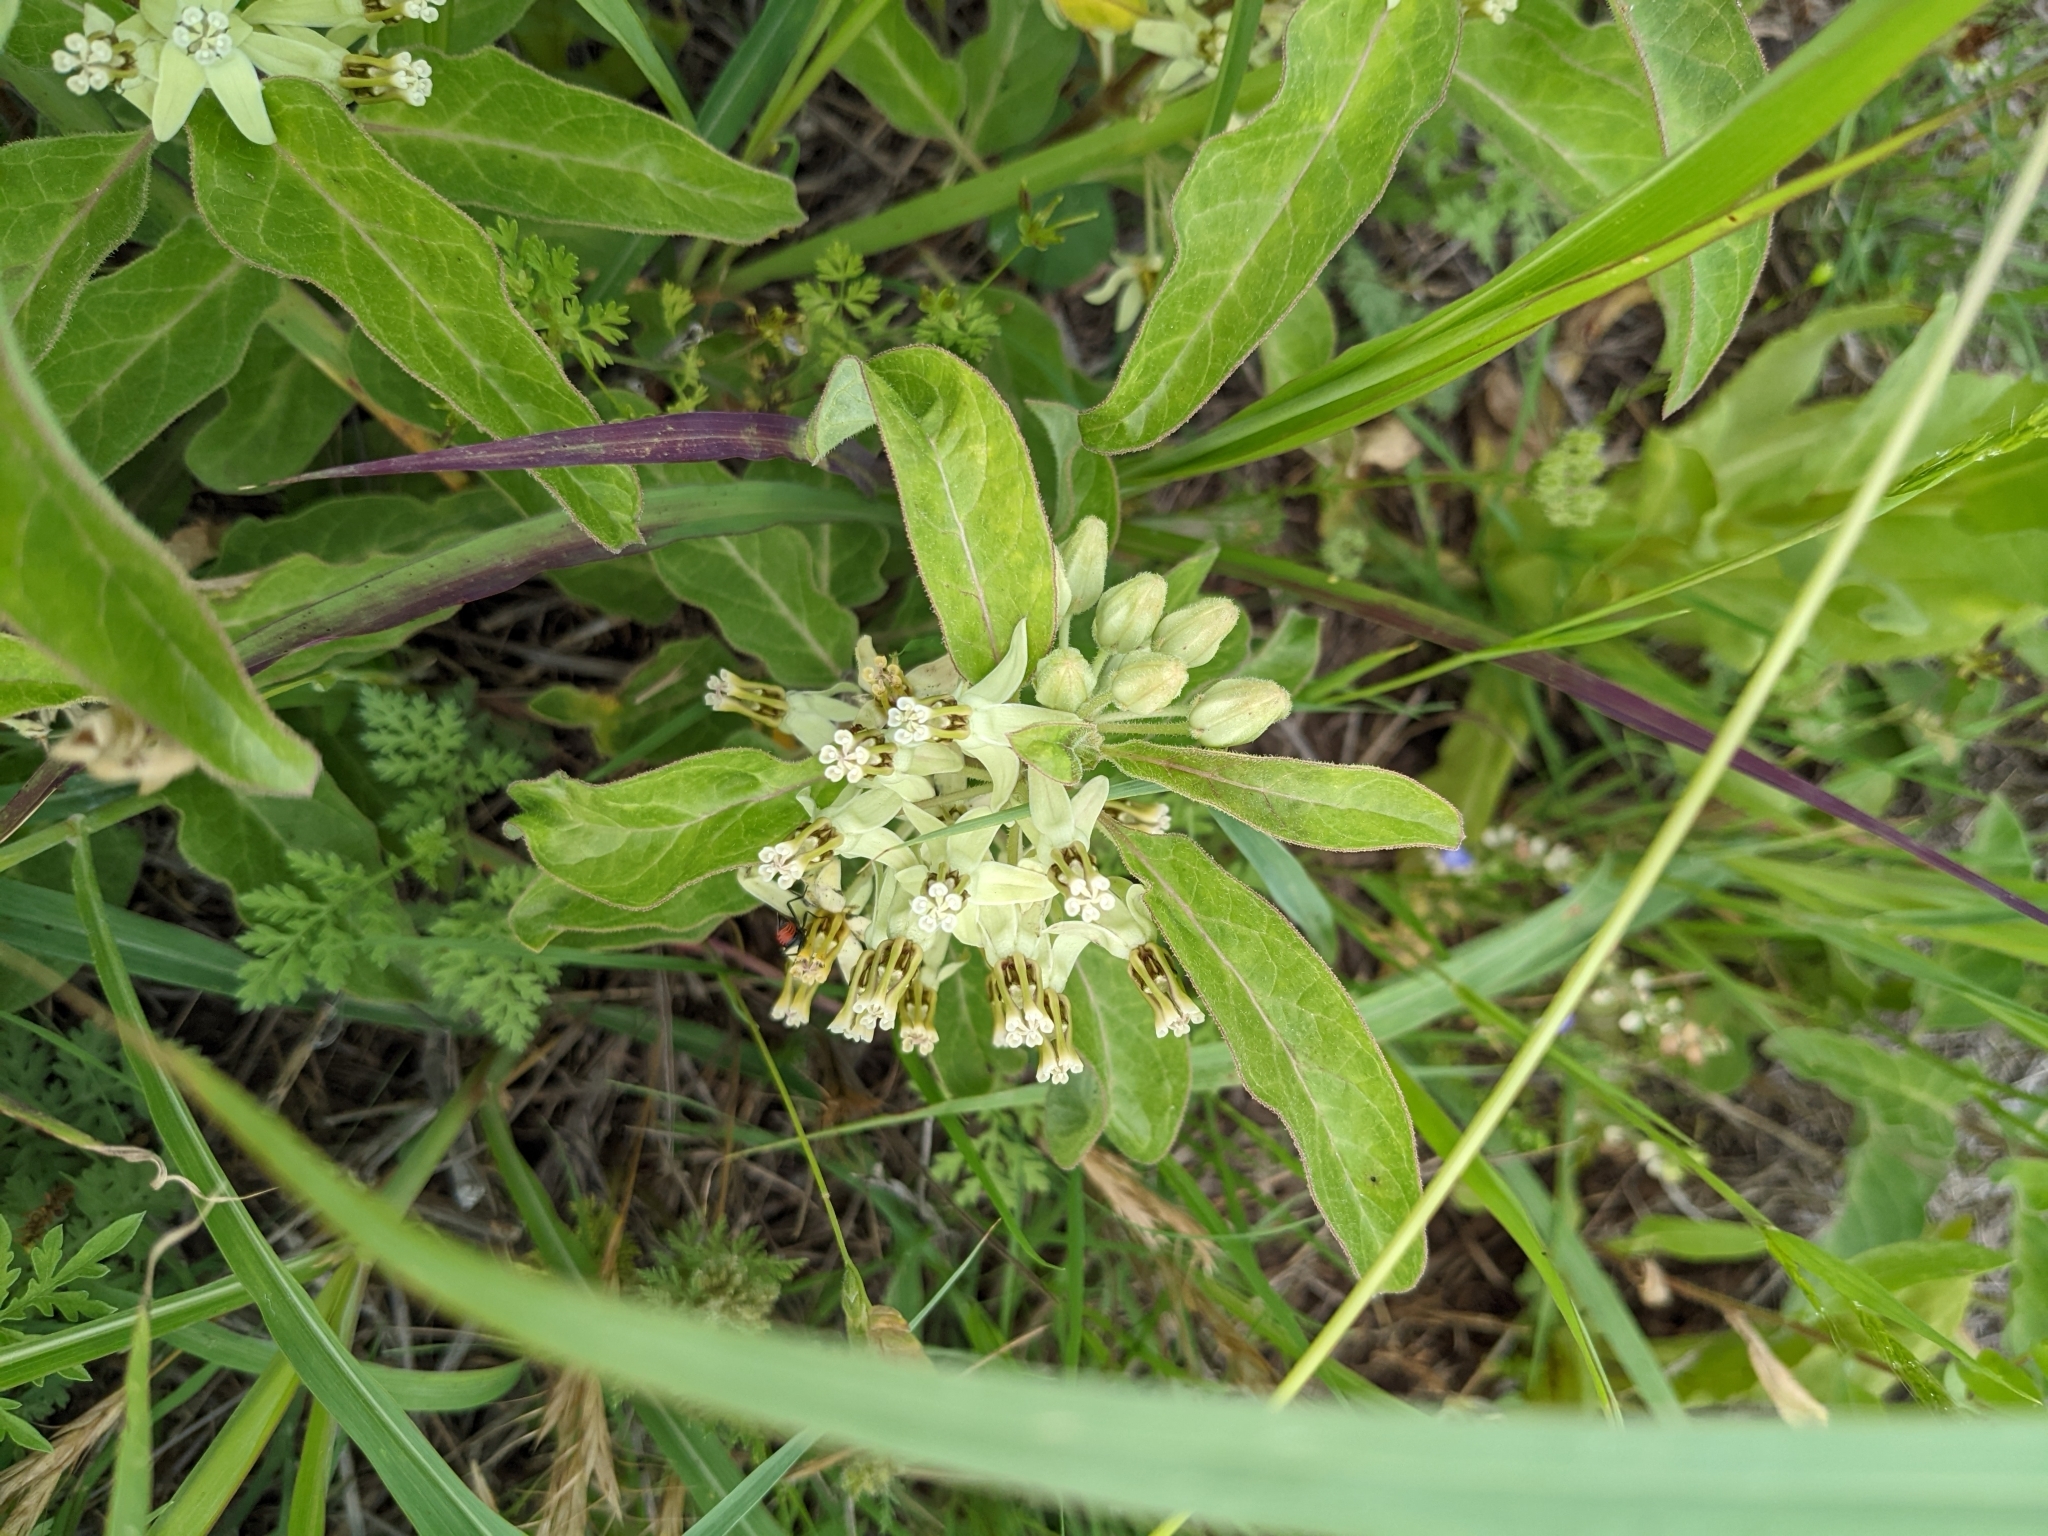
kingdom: Plantae
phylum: Tracheophyta
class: Magnoliopsida
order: Gentianales
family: Apocynaceae
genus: Asclepias
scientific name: Asclepias oenotheroides
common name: Zizotes milkweed
